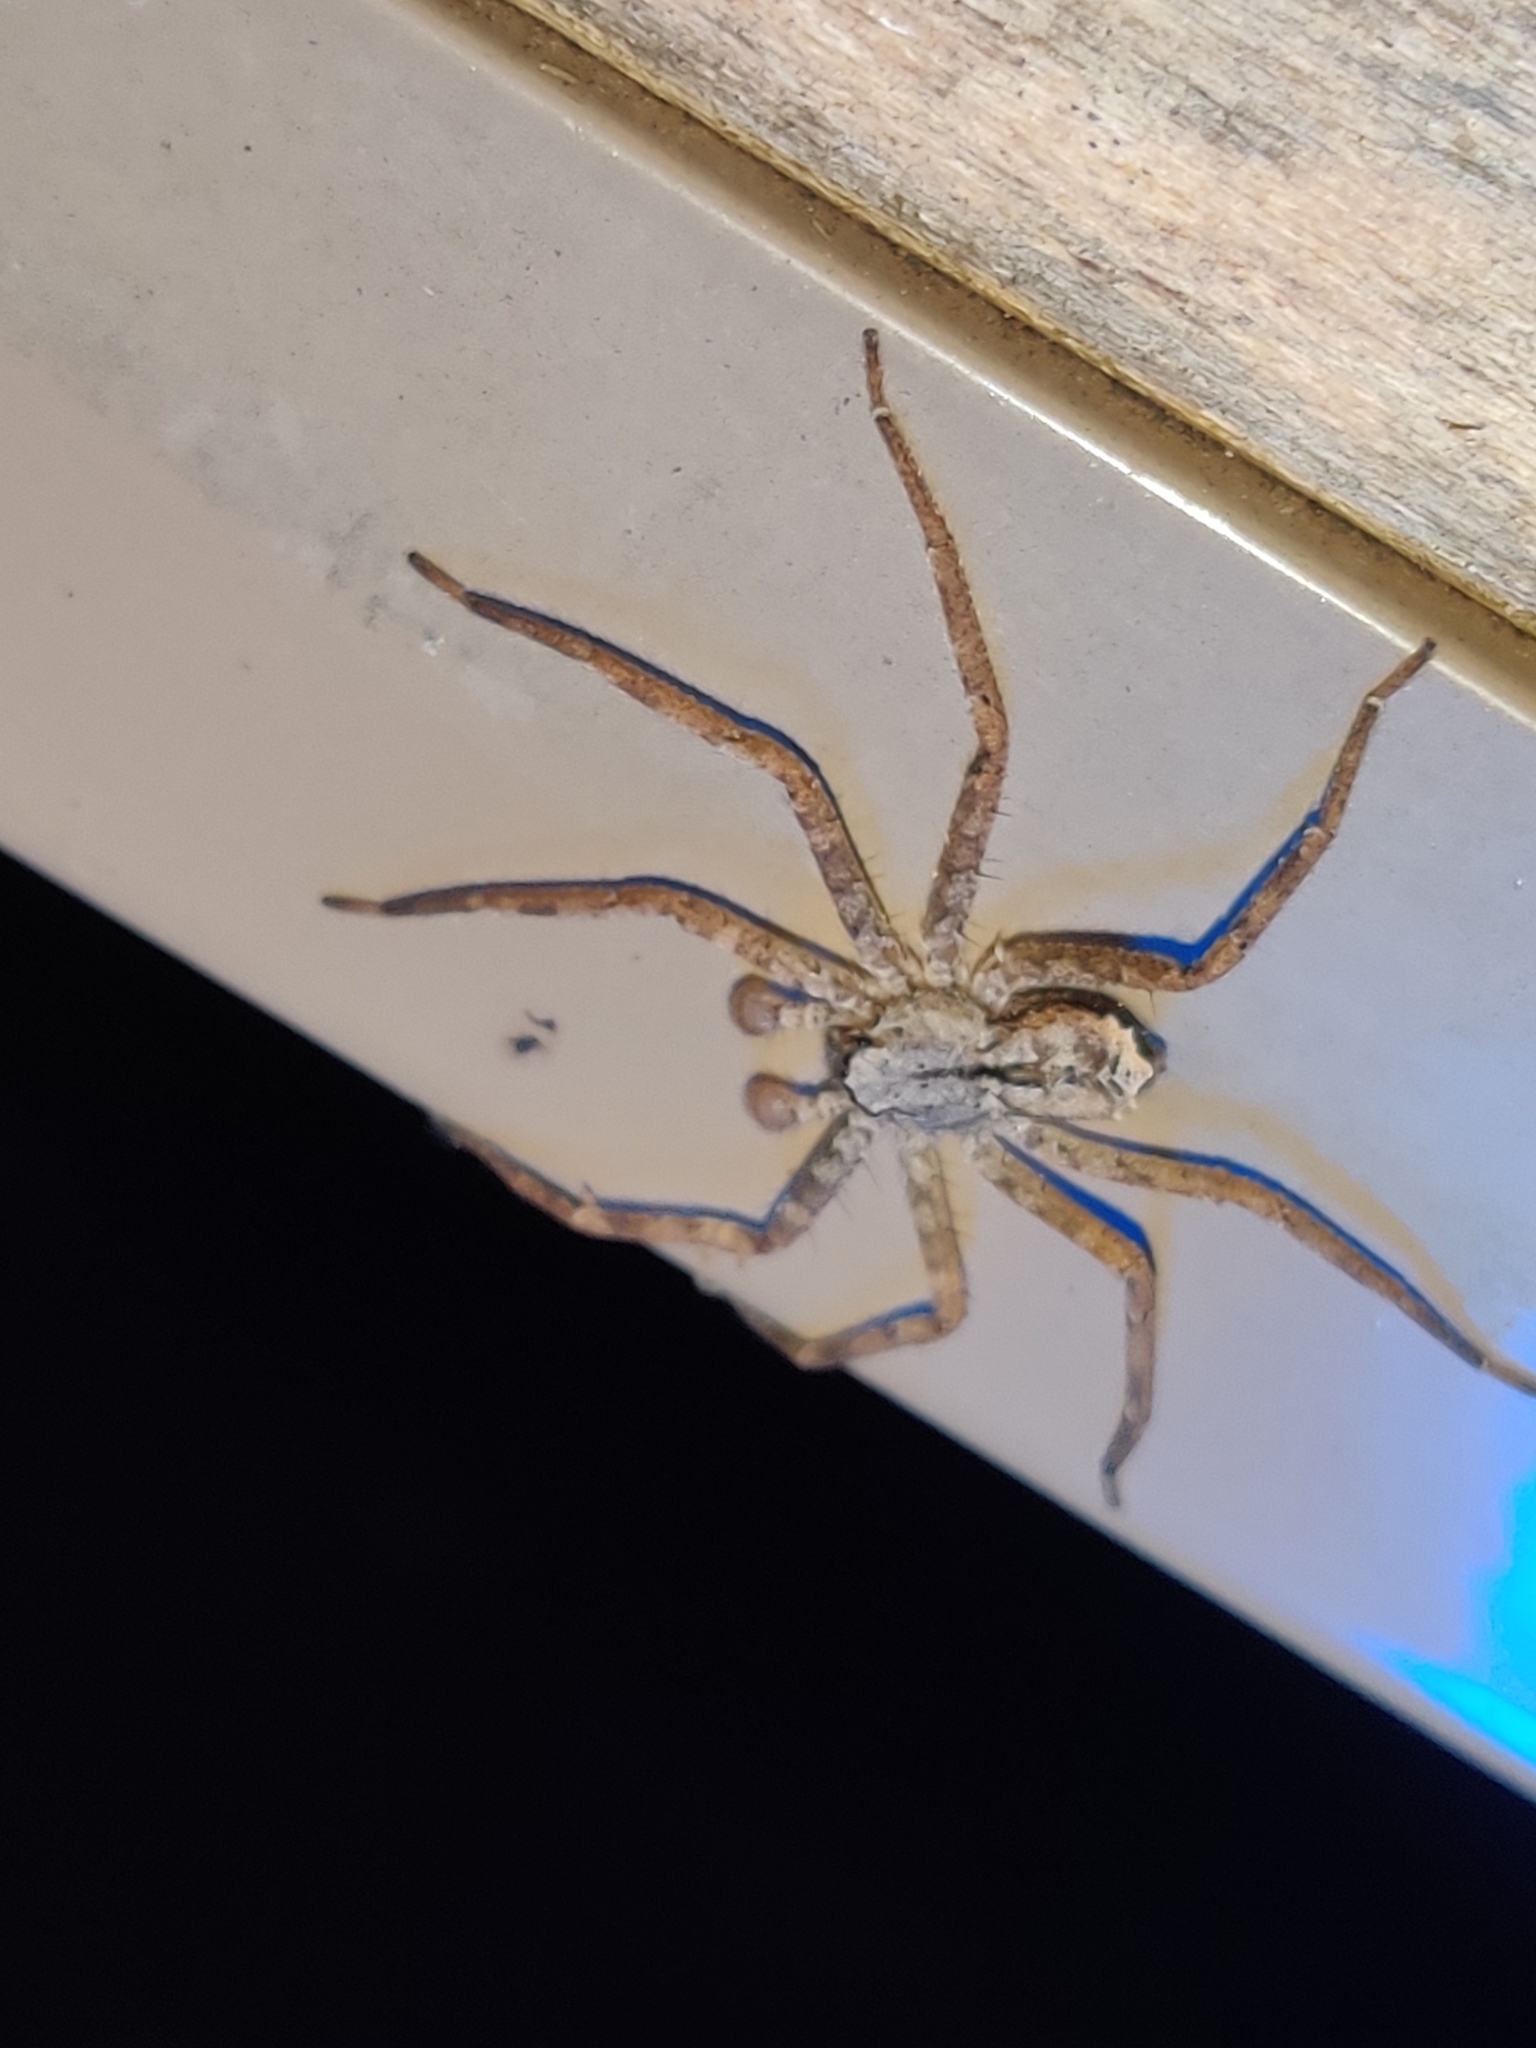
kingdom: Animalia
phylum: Arthropoda
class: Arachnida
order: Araneae
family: Selenopidae
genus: Selenops
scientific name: Selenops submaculosus
